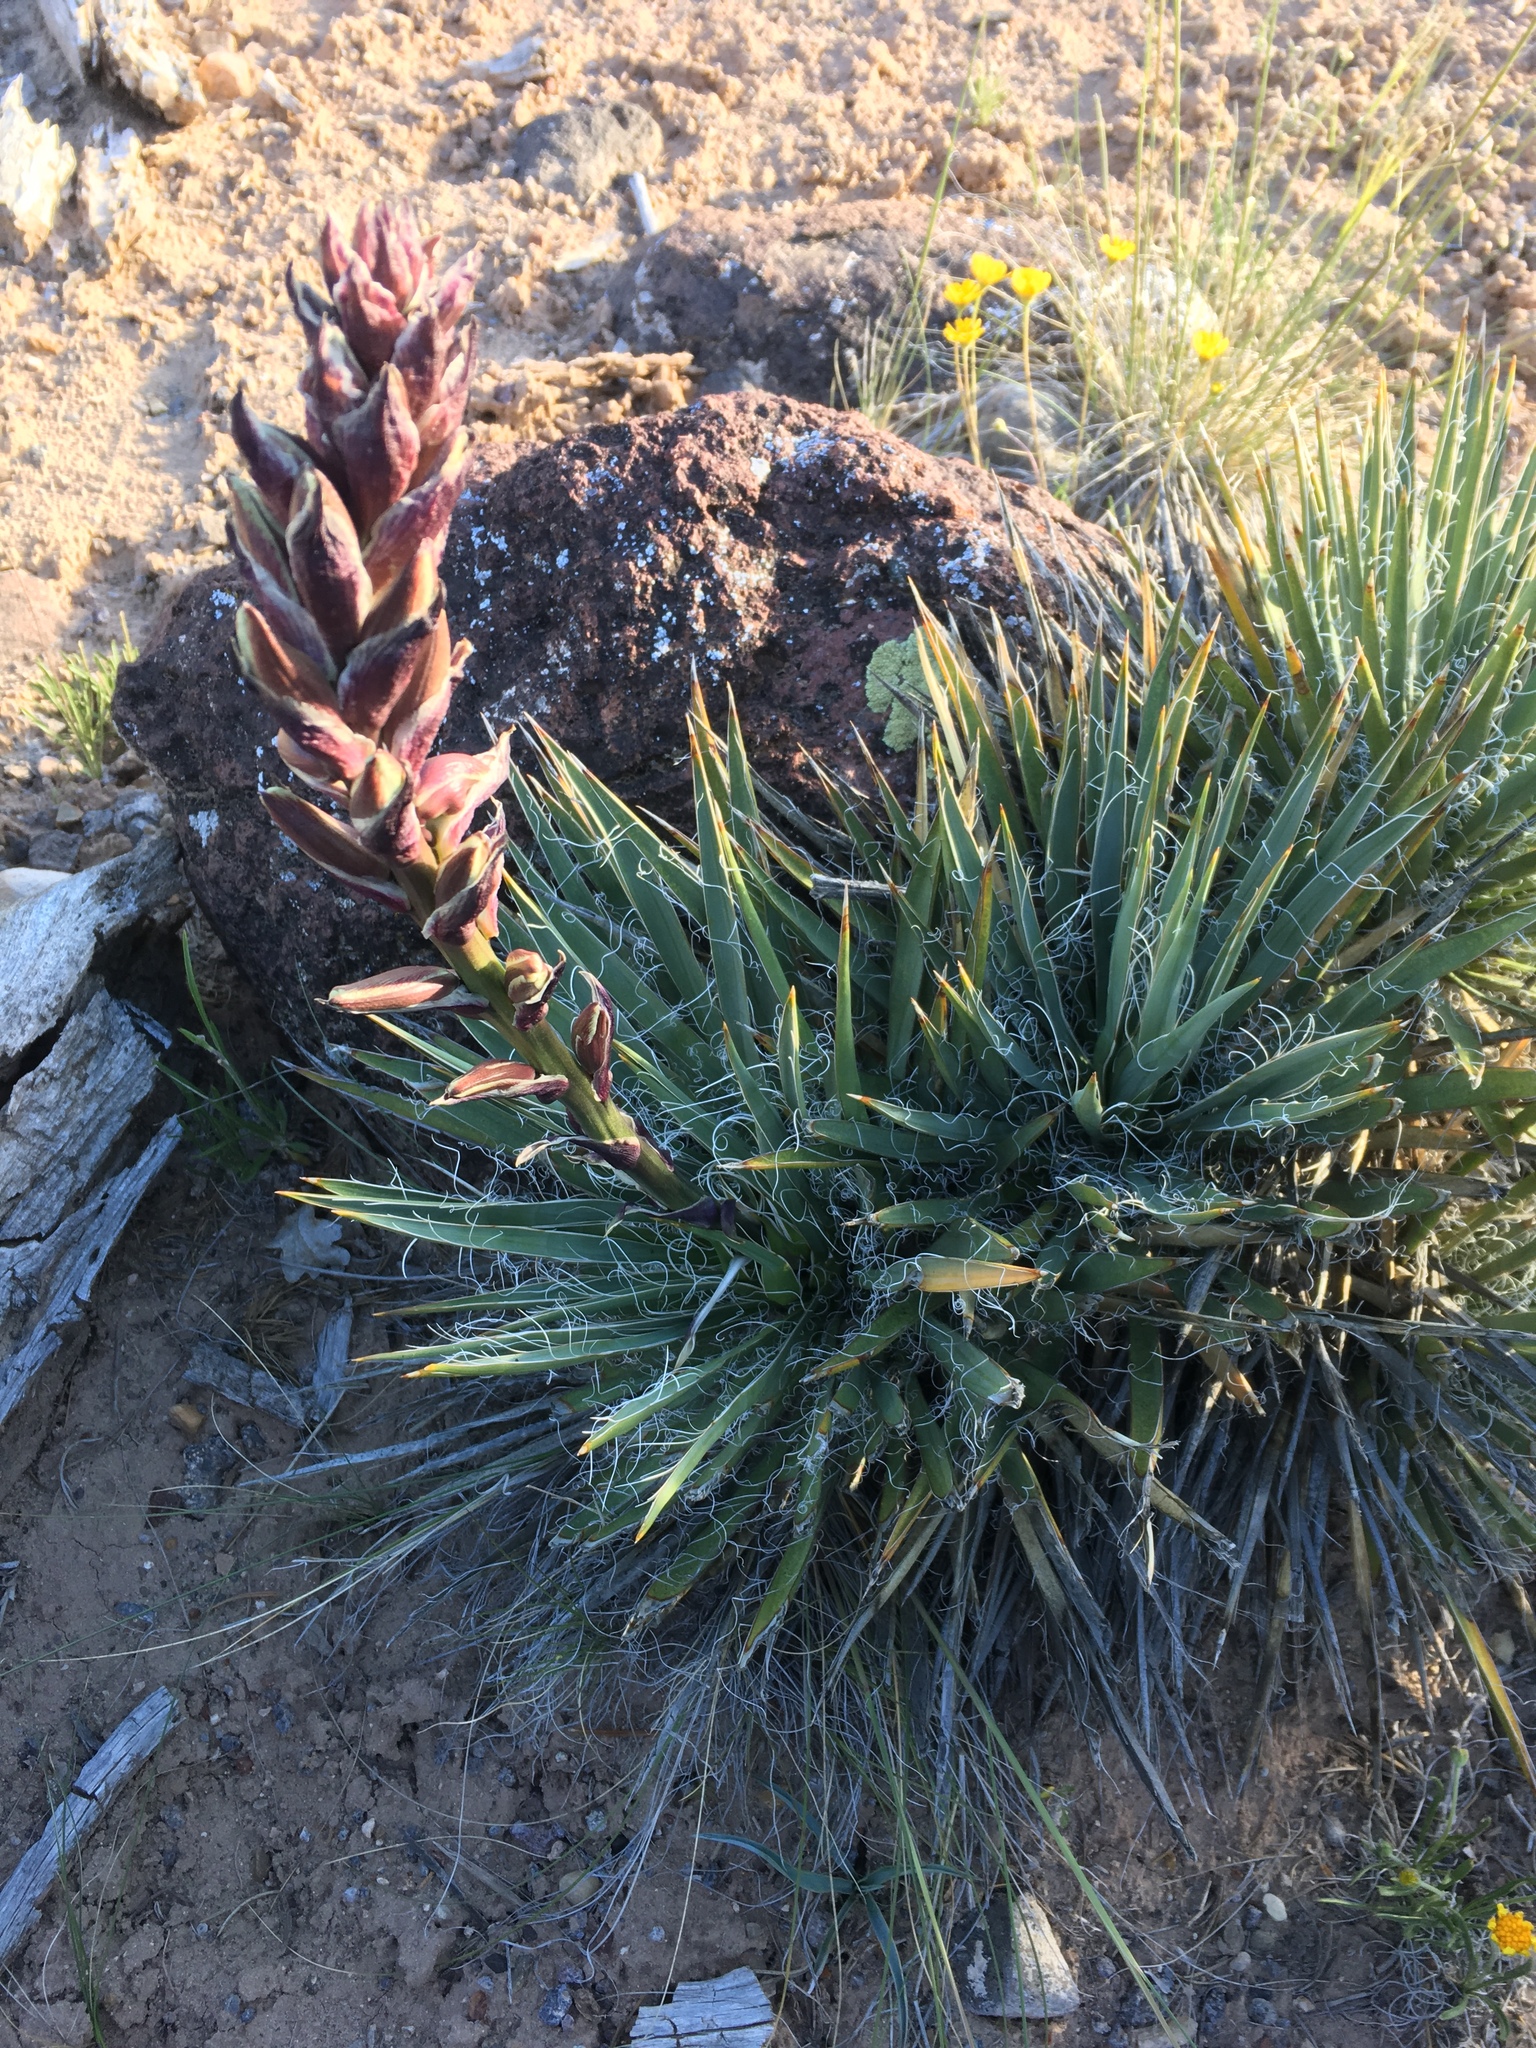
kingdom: Plantae
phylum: Tracheophyta
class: Liliopsida
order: Asparagales
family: Asparagaceae
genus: Yucca
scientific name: Yucca harrimaniae
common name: Harriman's yucca
